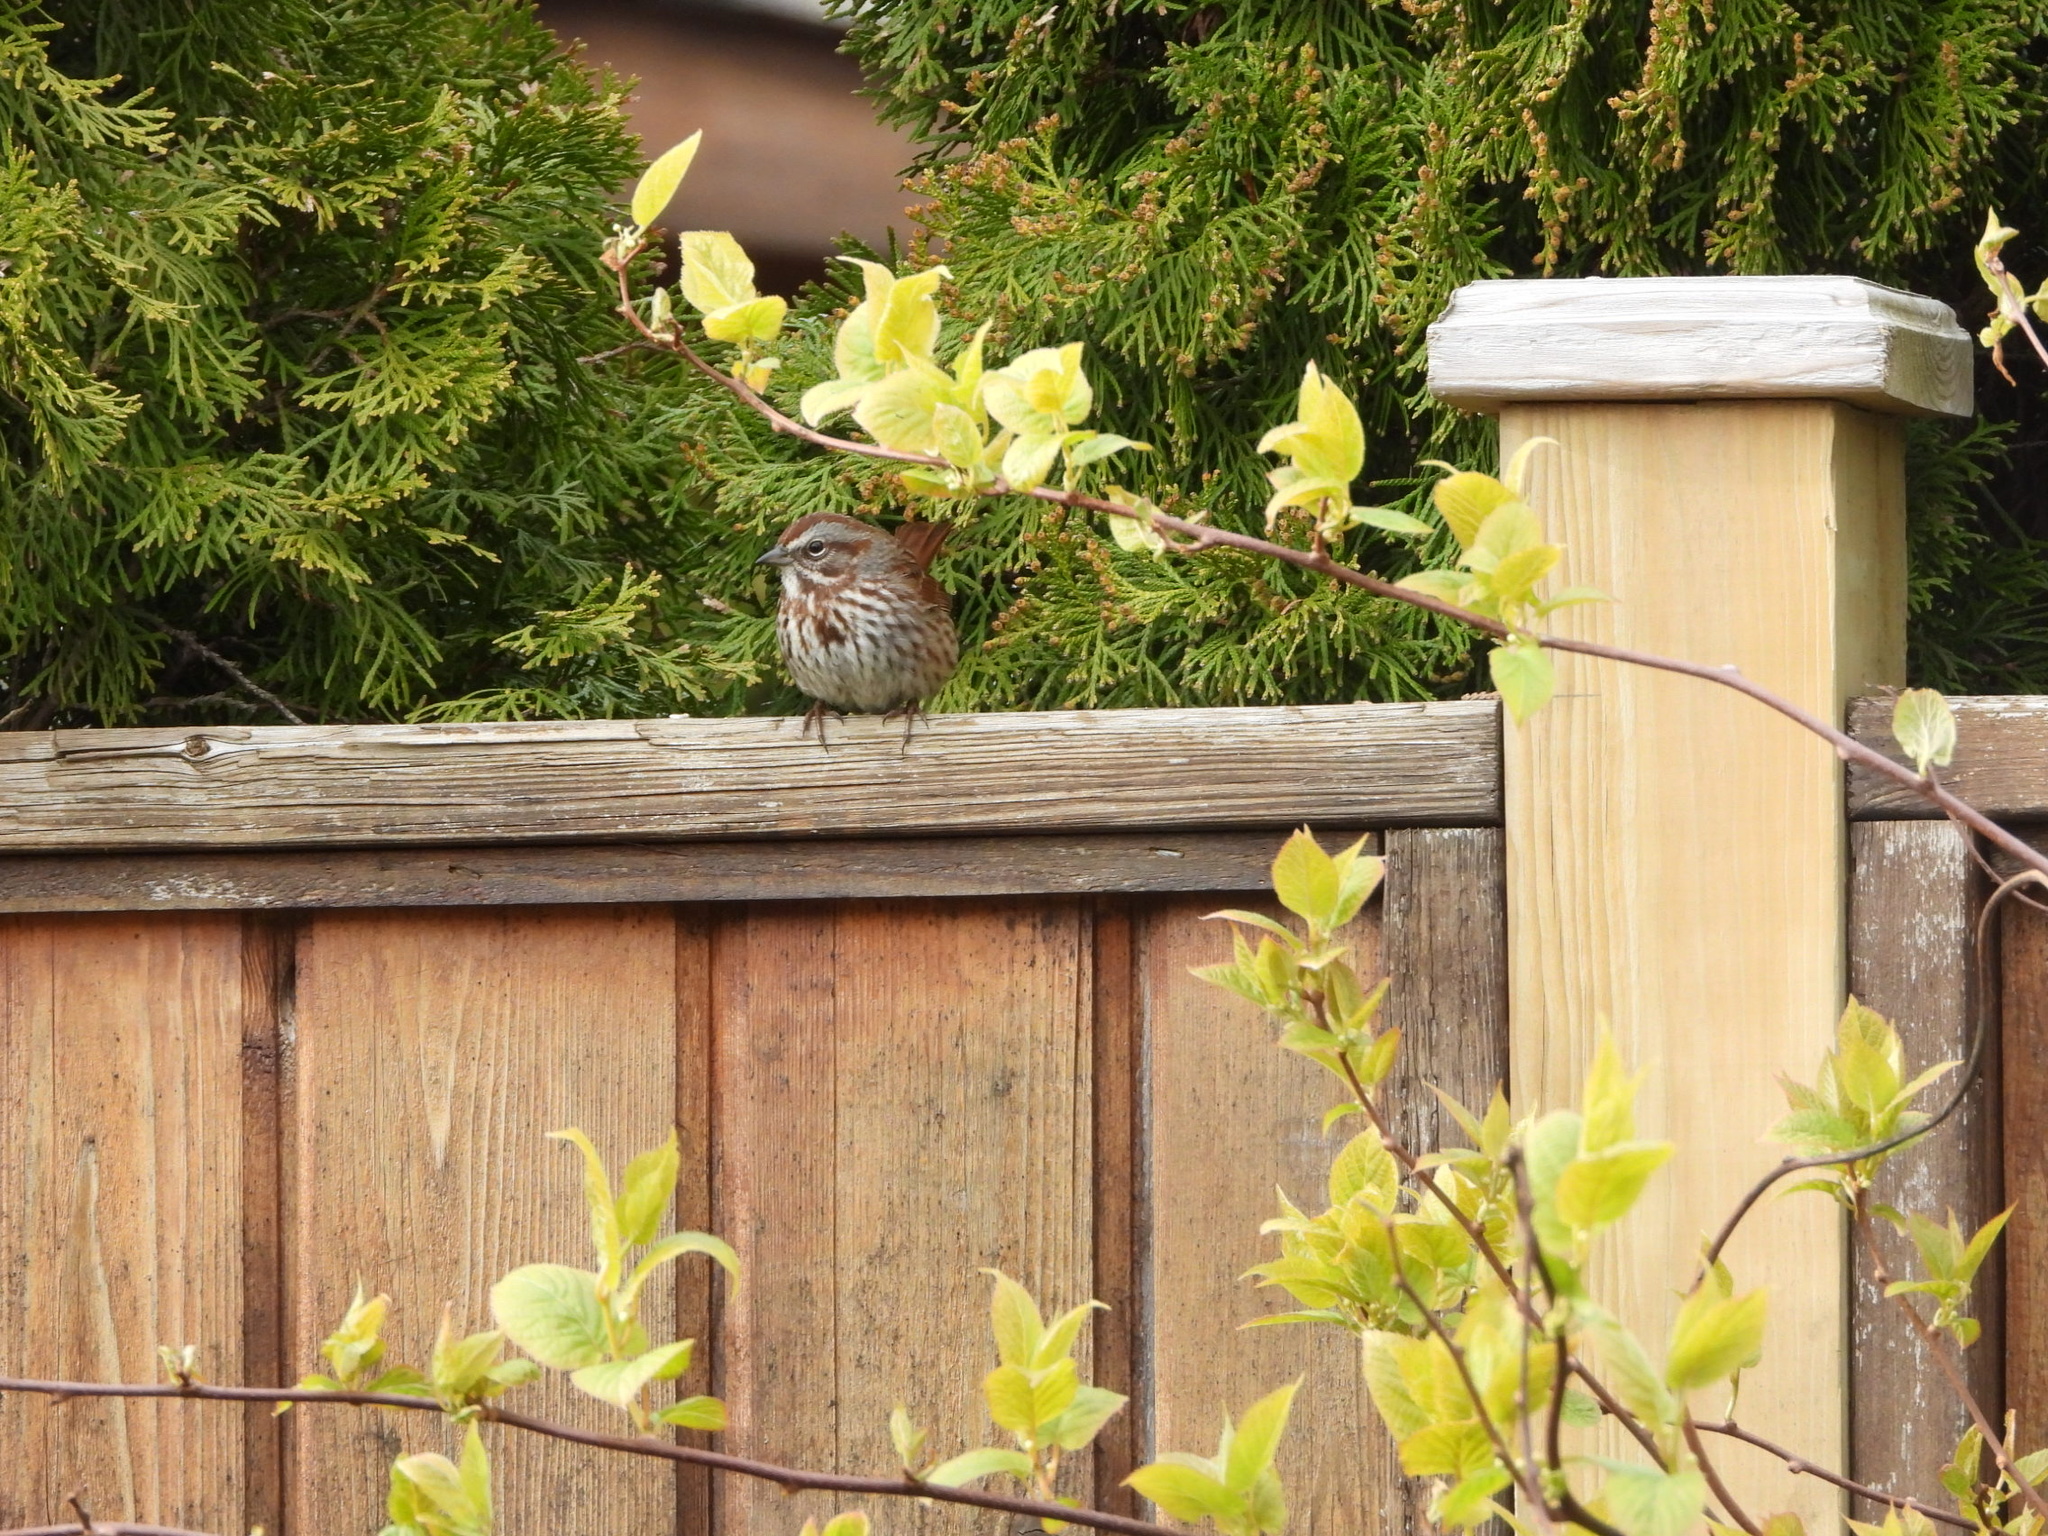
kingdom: Animalia
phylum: Chordata
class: Aves
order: Passeriformes
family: Passerellidae
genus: Melospiza
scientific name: Melospiza melodia
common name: Song sparrow
